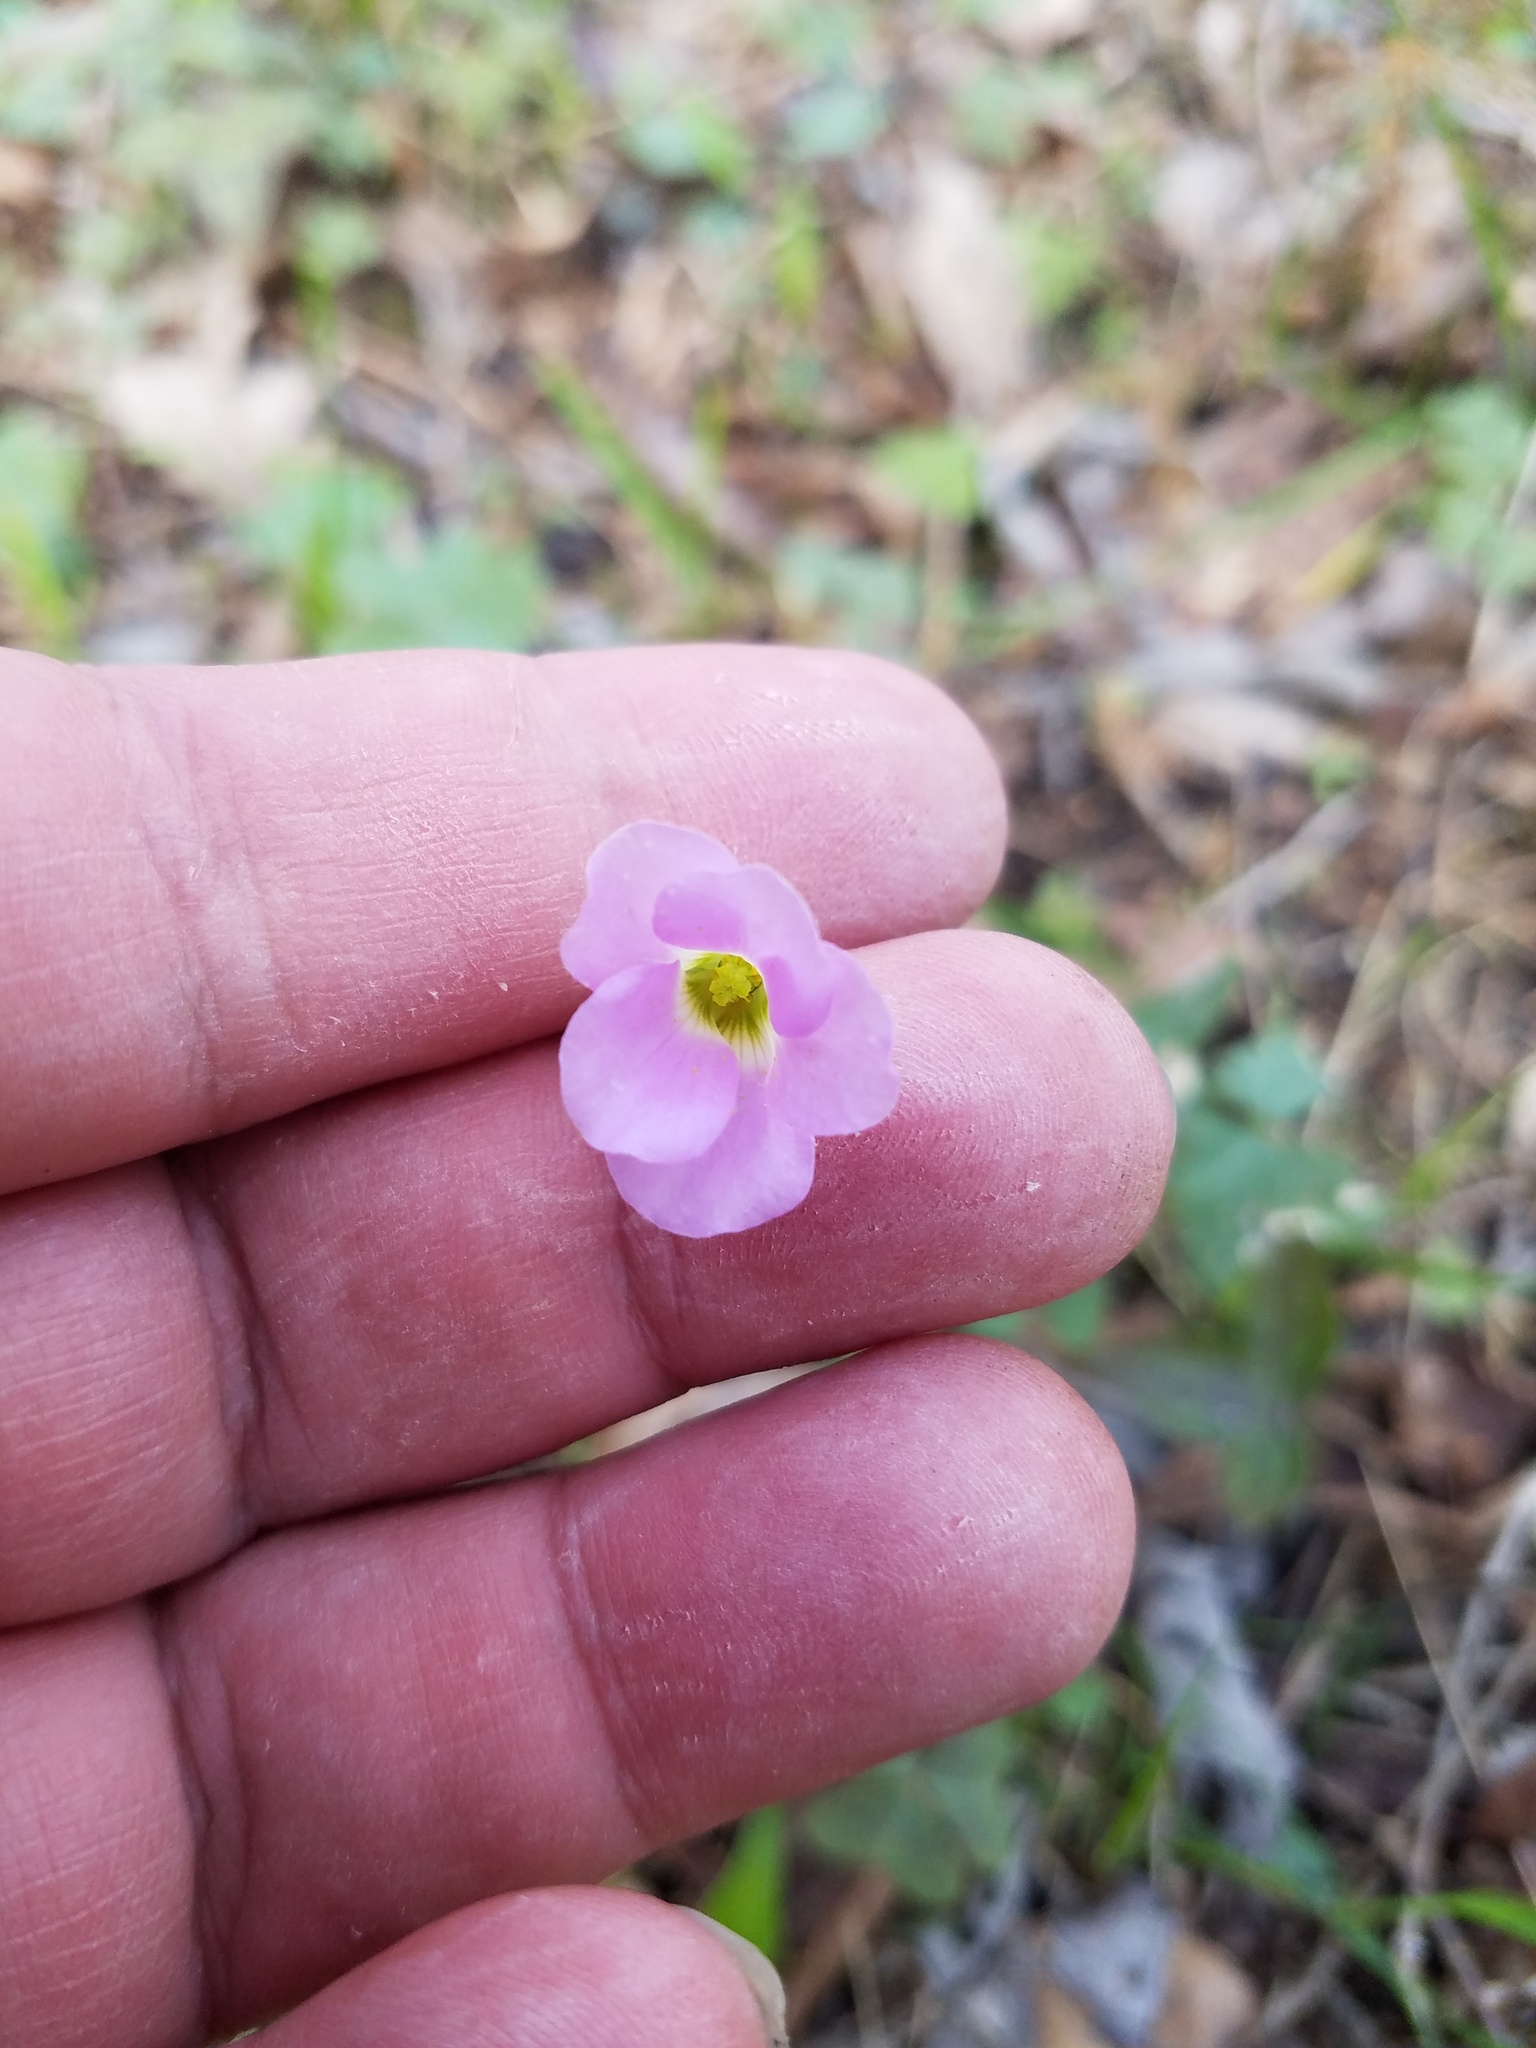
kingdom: Plantae
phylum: Tracheophyta
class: Magnoliopsida
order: Oxalidales
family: Oxalidaceae
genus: Oxalis
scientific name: Oxalis violacea
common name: Violet wood-sorrel
